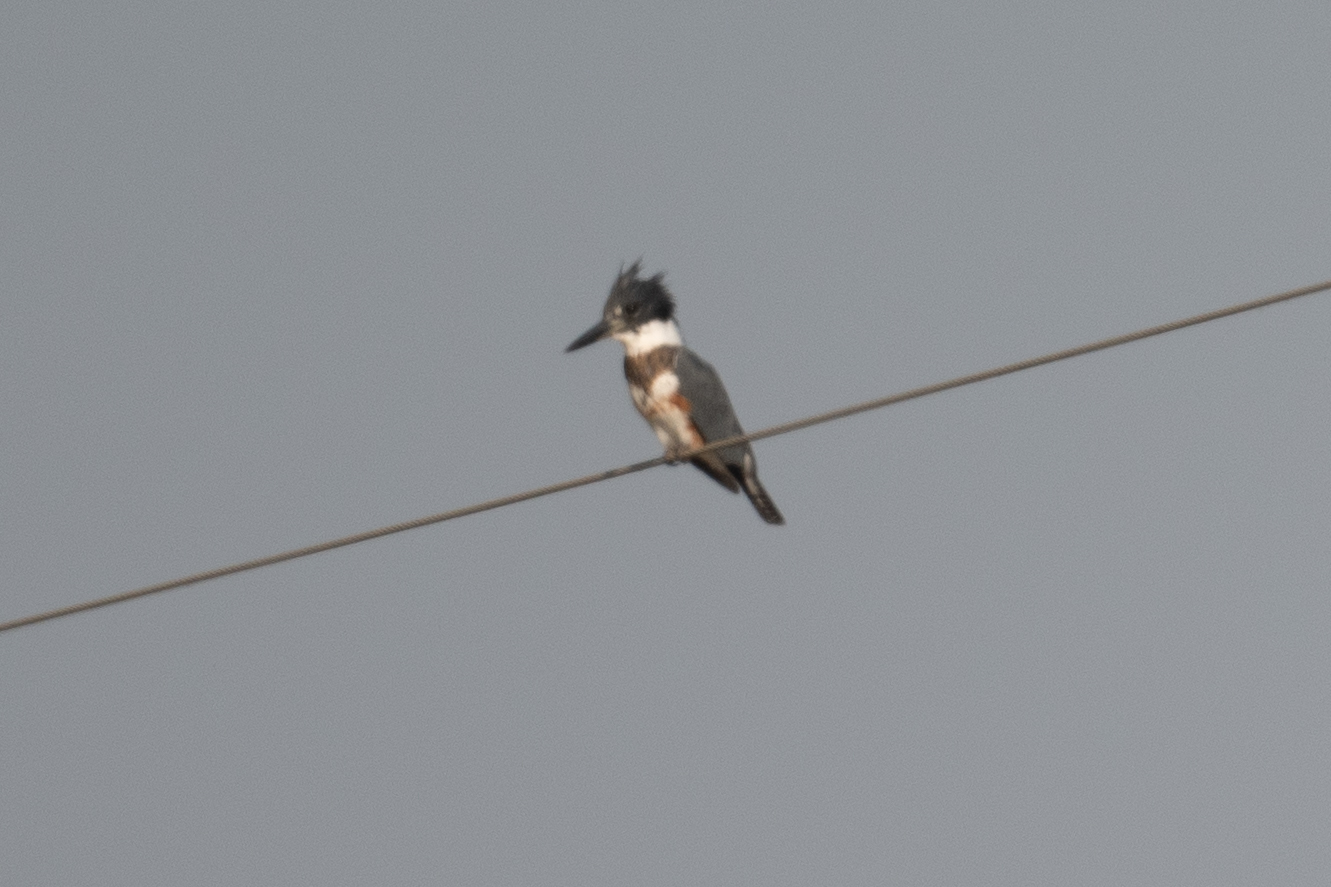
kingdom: Animalia
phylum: Chordata
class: Aves
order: Coraciiformes
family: Alcedinidae
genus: Megaceryle
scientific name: Megaceryle alcyon
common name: Belted kingfisher
